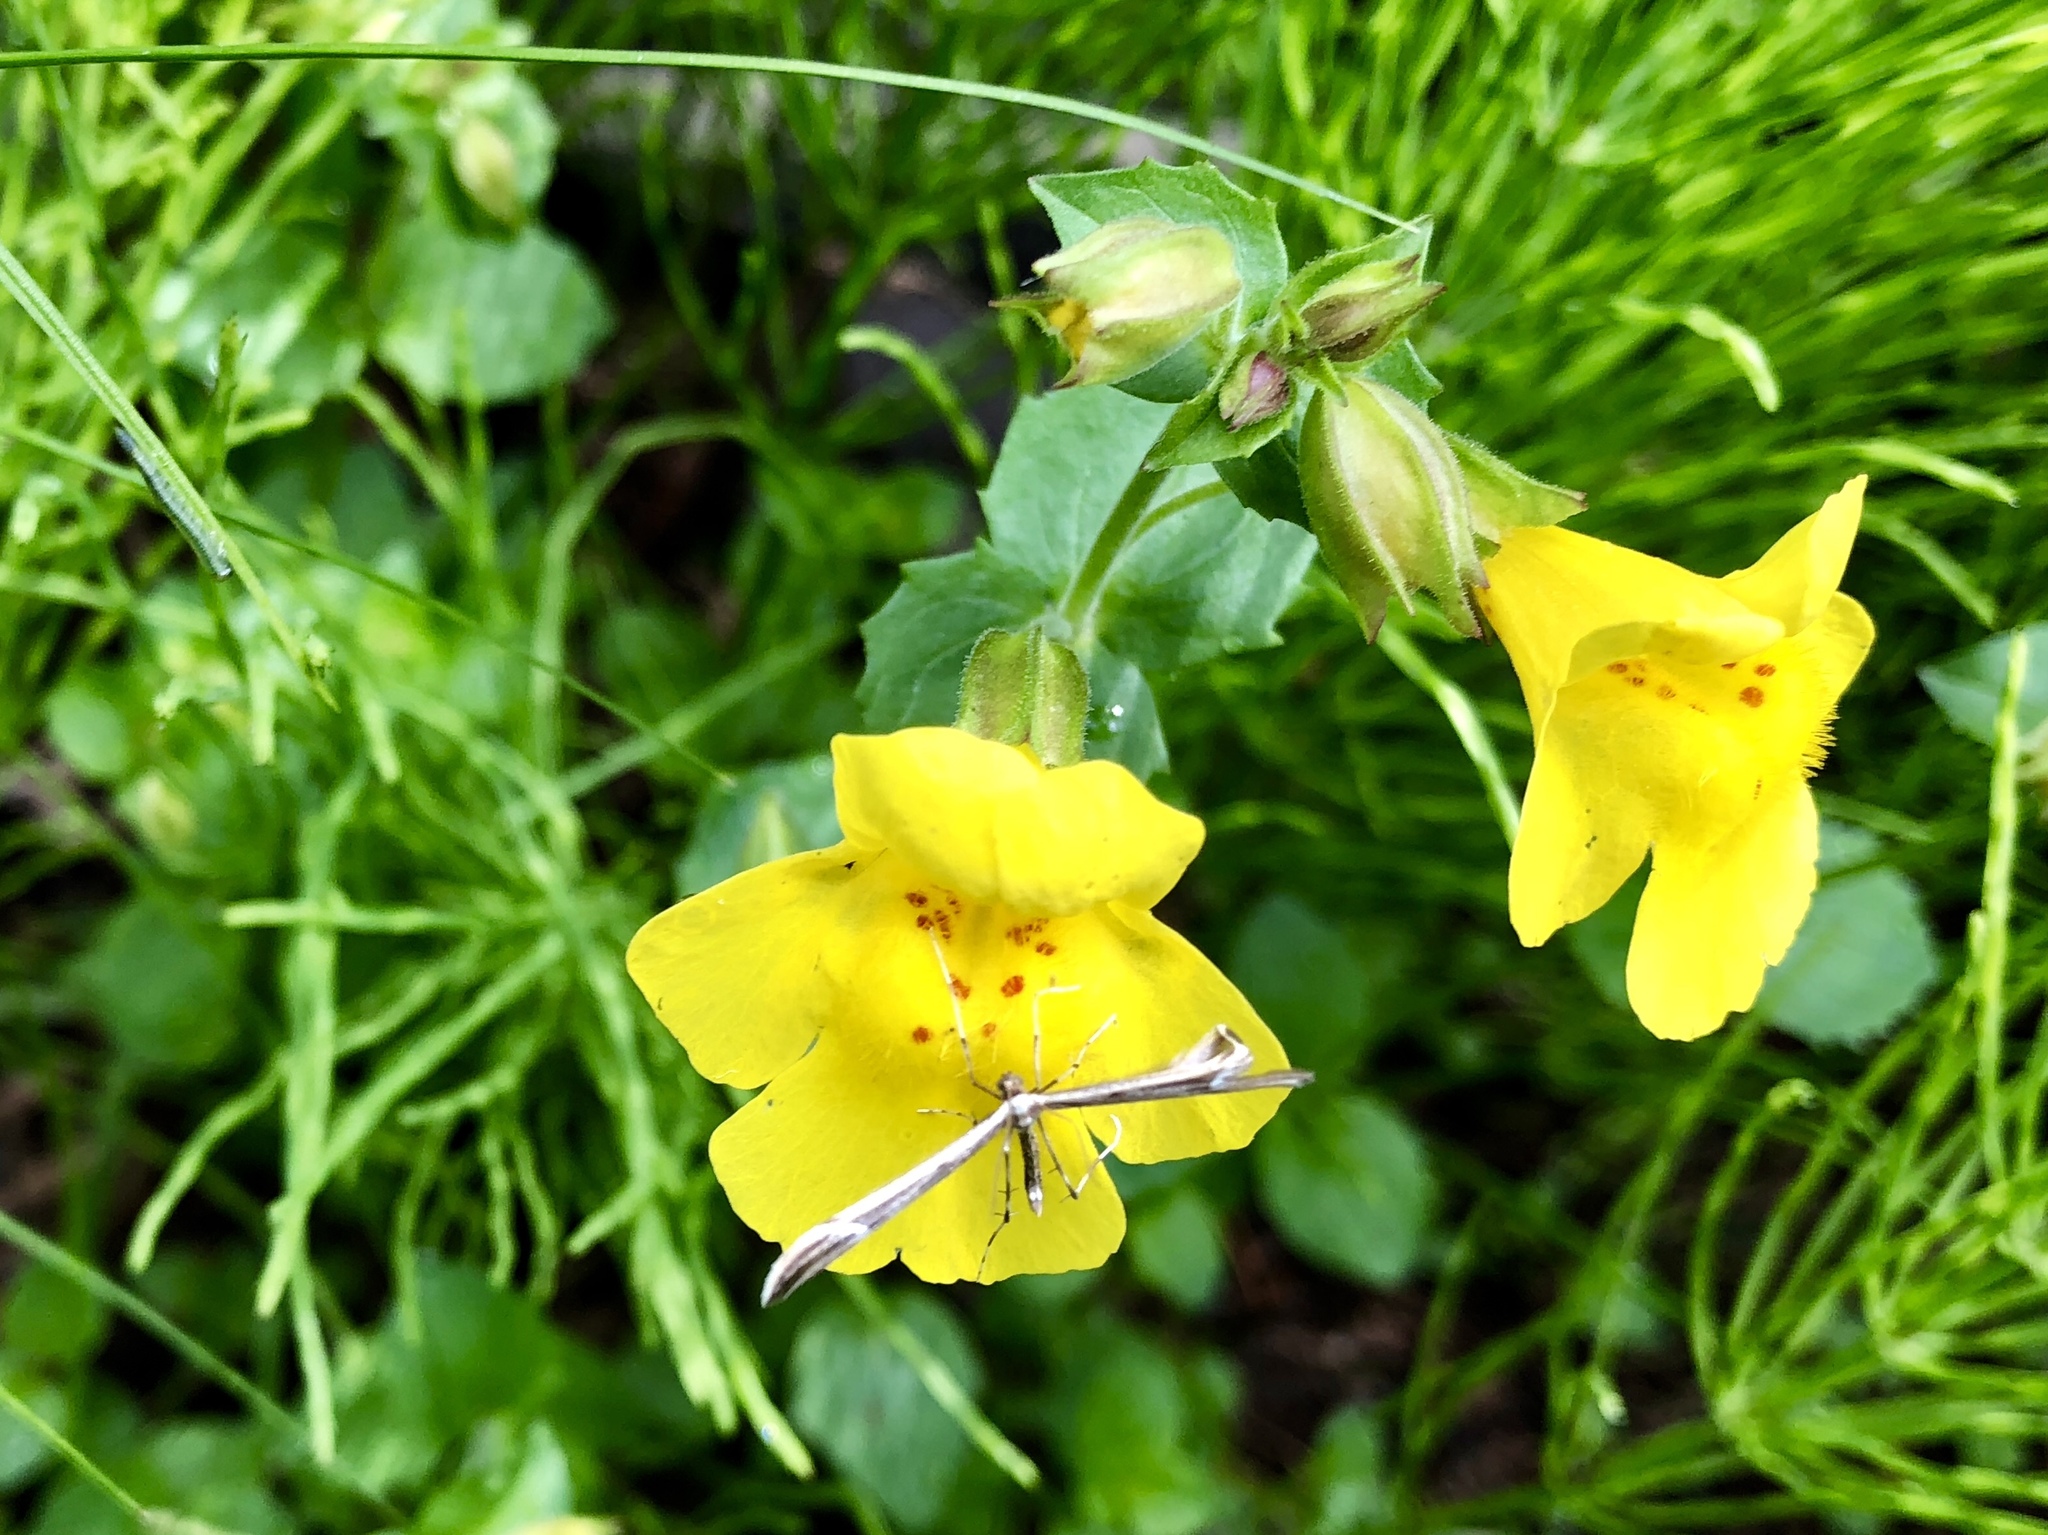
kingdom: Plantae
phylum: Tracheophyta
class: Magnoliopsida
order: Lamiales
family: Phrymaceae
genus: Erythranthe
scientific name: Erythranthe guttata
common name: Monkeyflower
